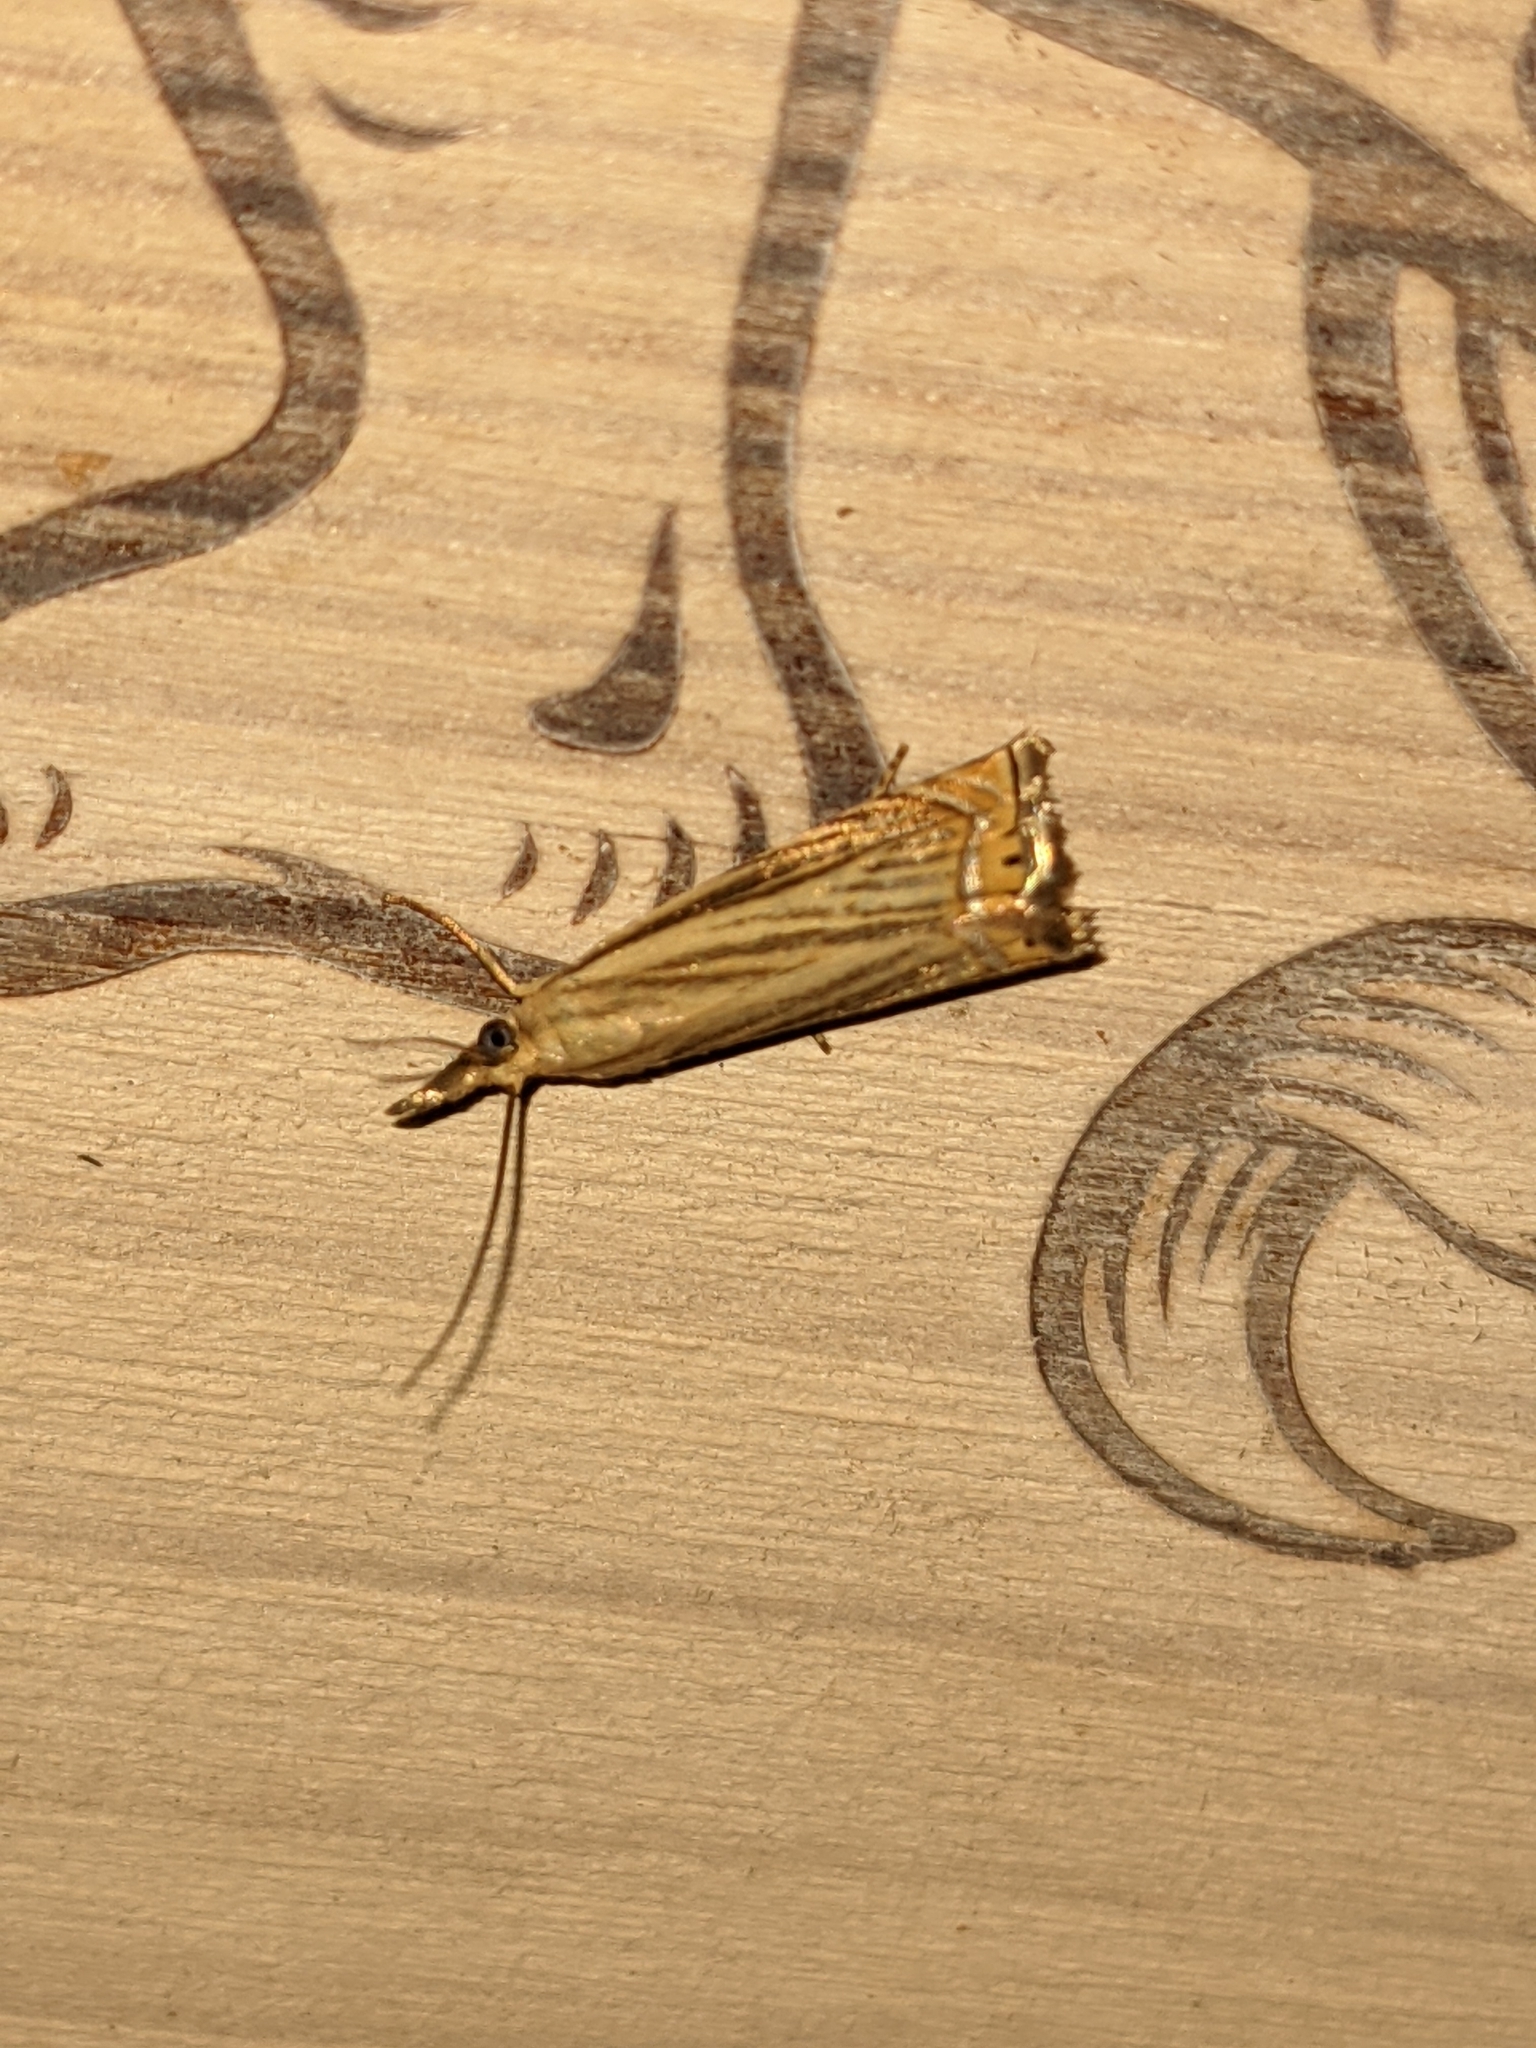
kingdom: Animalia
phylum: Arthropoda
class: Insecta
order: Lepidoptera
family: Crambidae
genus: Chrysoteuchia
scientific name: Chrysoteuchia topiarius
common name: Topiary grass-veneer
